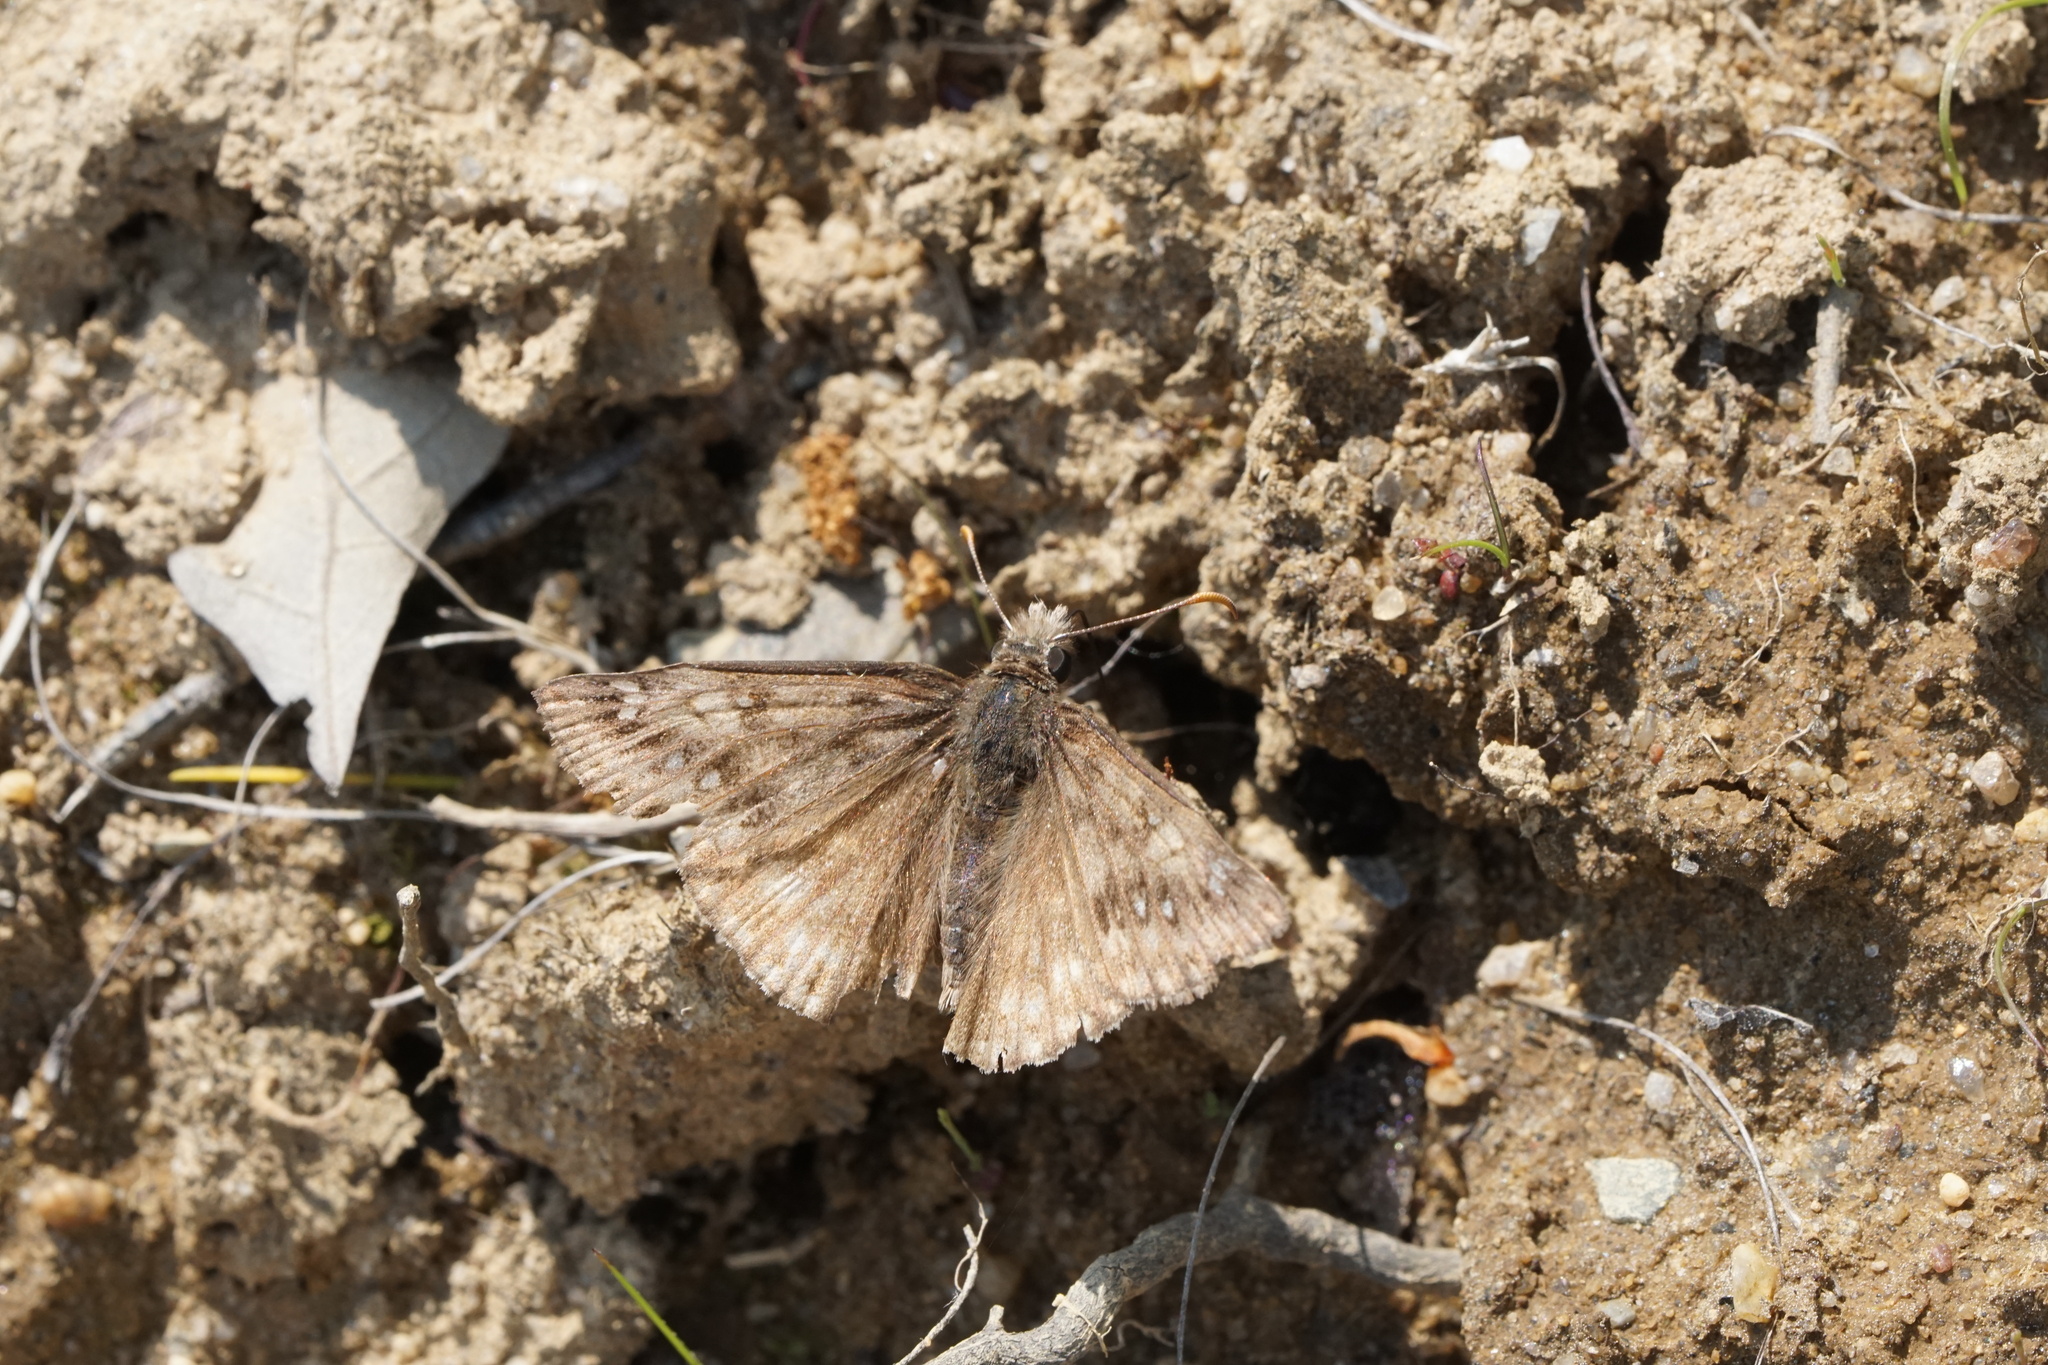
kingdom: Animalia
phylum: Arthropoda
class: Insecta
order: Lepidoptera
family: Hesperiidae
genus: Erynnis
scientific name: Erynnis juvenalis
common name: Juvenal's duskywing
